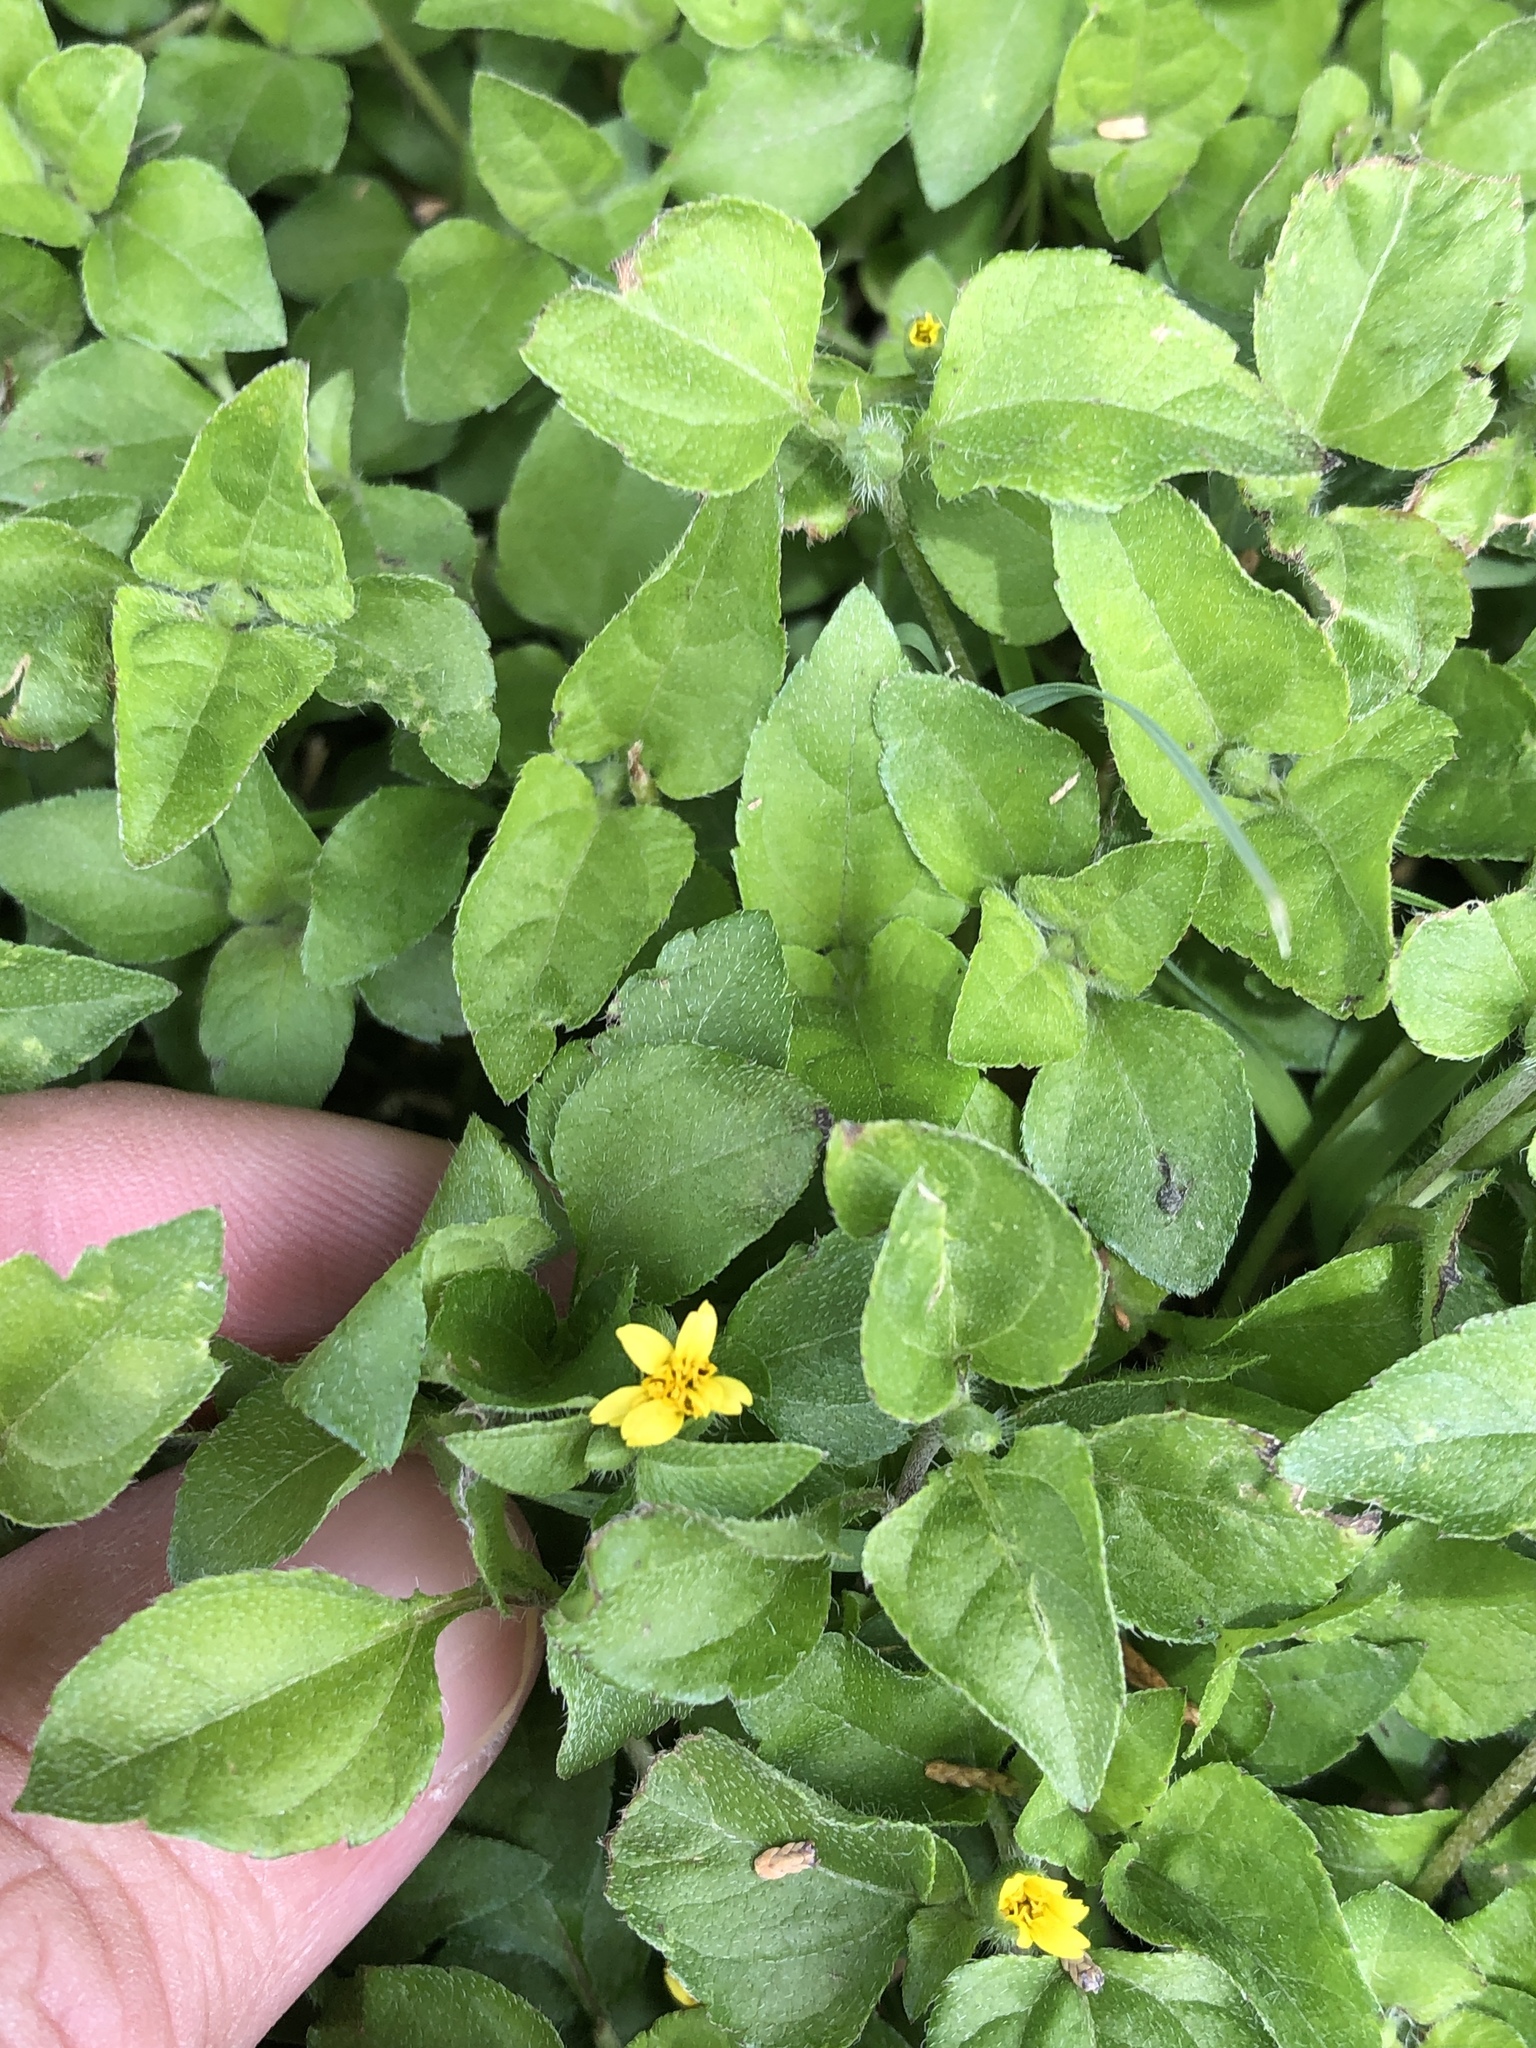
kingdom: Plantae
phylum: Tracheophyta
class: Magnoliopsida
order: Asterales
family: Asteraceae
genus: Calyptocarpus
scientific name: Calyptocarpus vialis
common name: Straggler daisy
